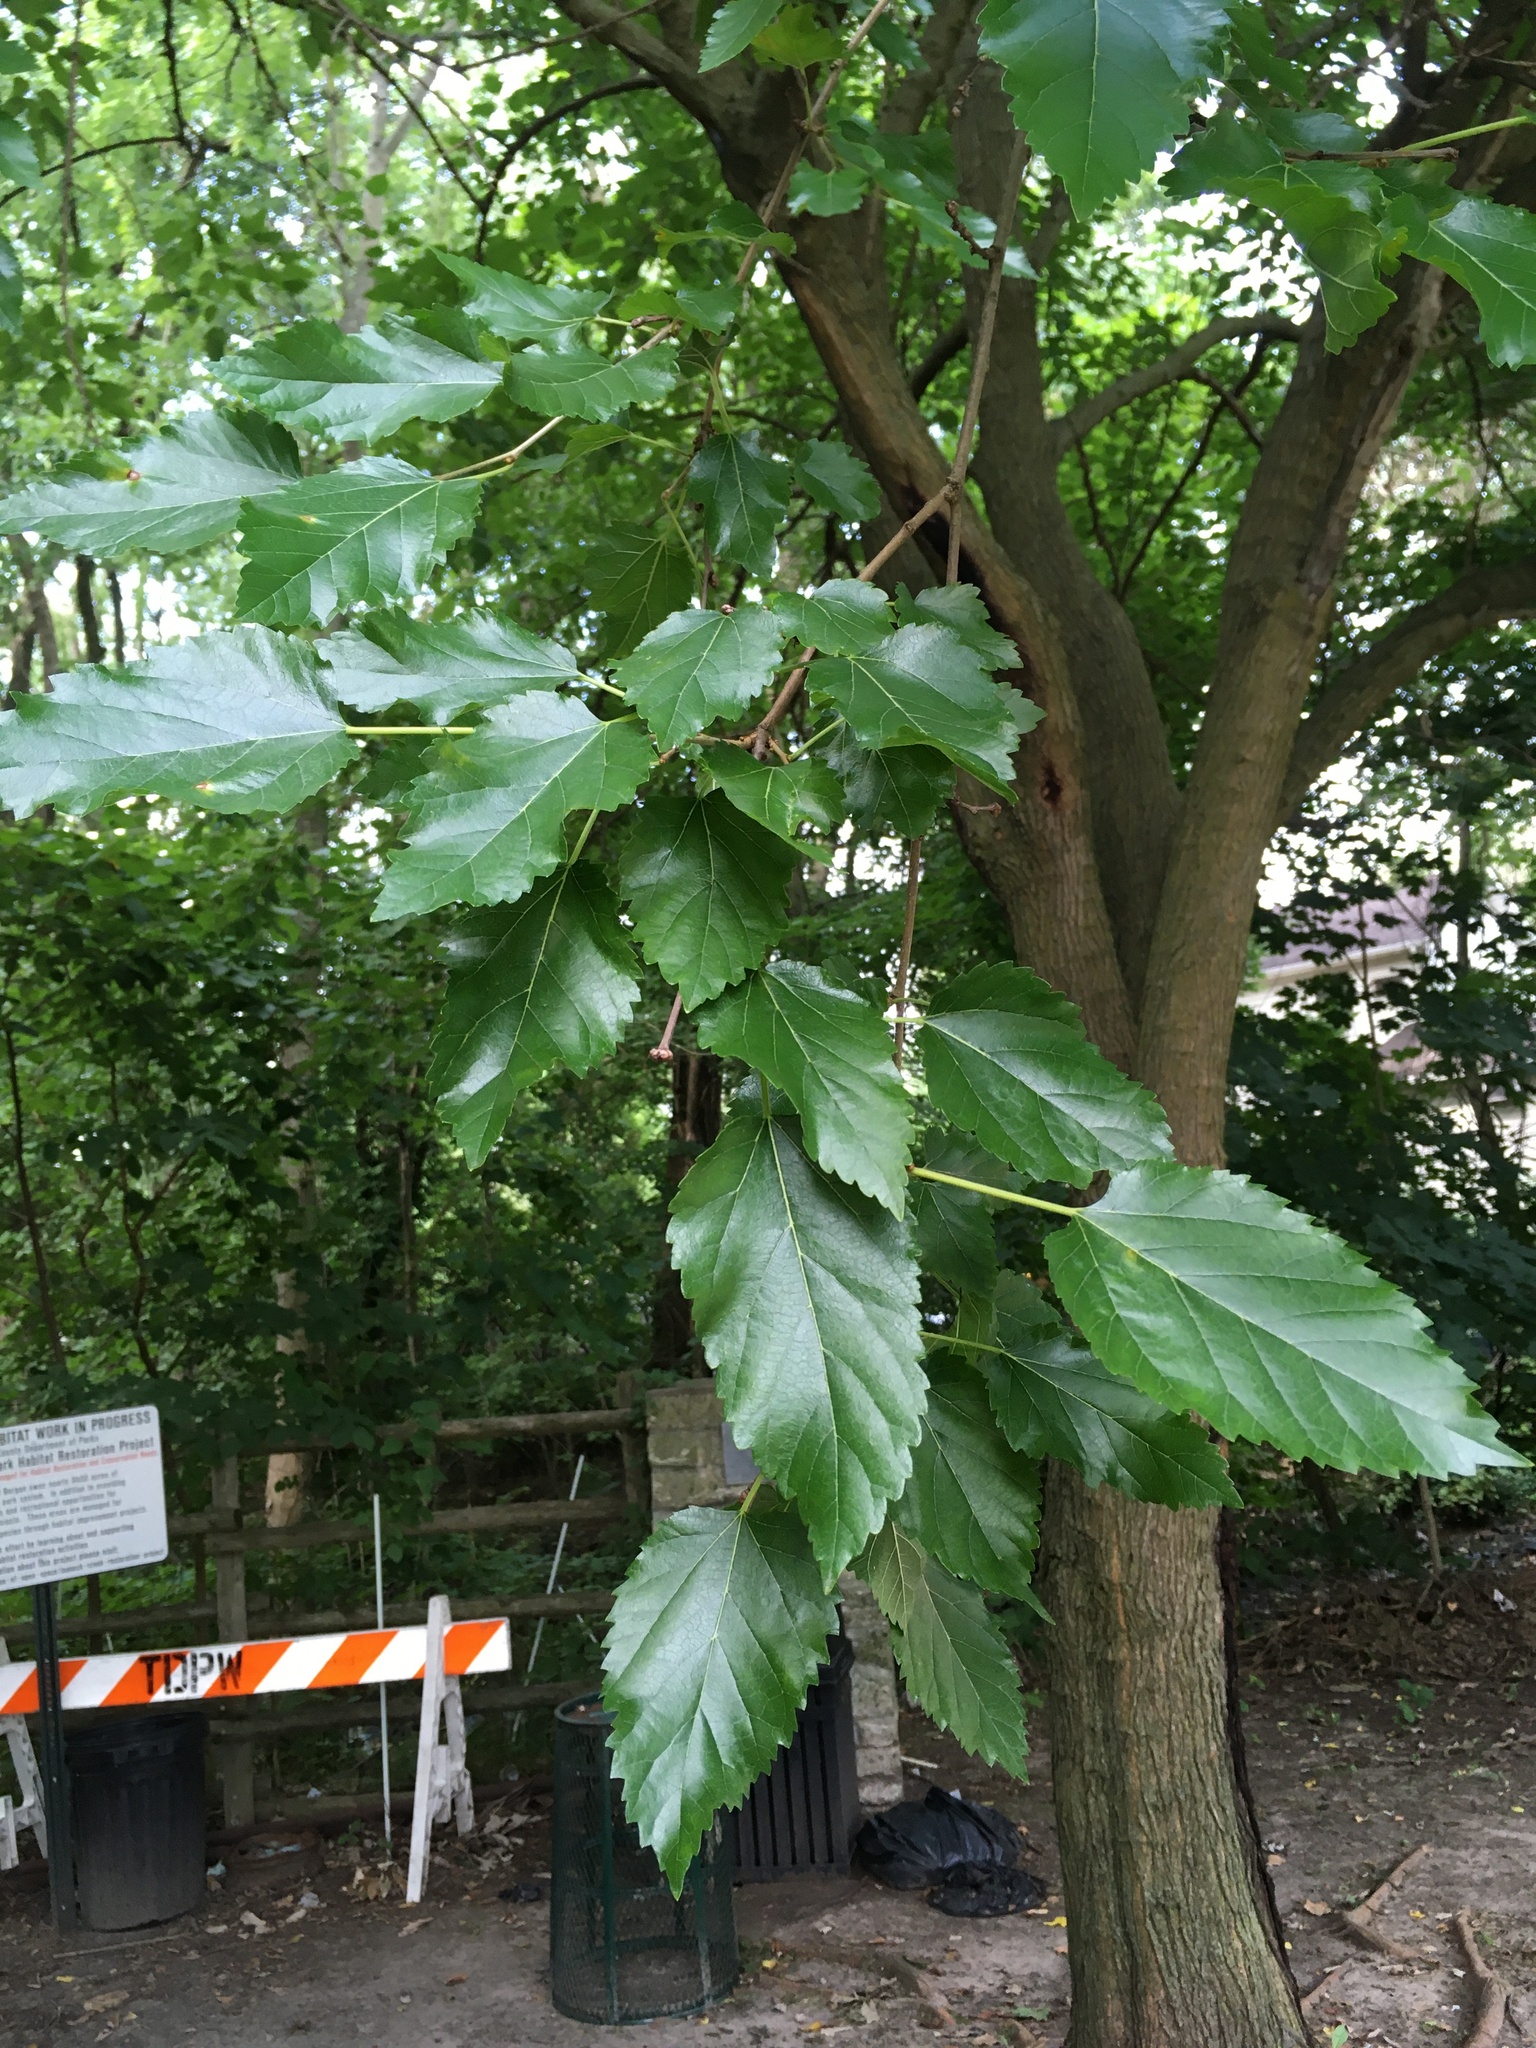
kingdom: Plantae
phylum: Tracheophyta
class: Magnoliopsida
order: Rosales
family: Moraceae
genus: Morus
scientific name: Morus alba
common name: White mulberry
